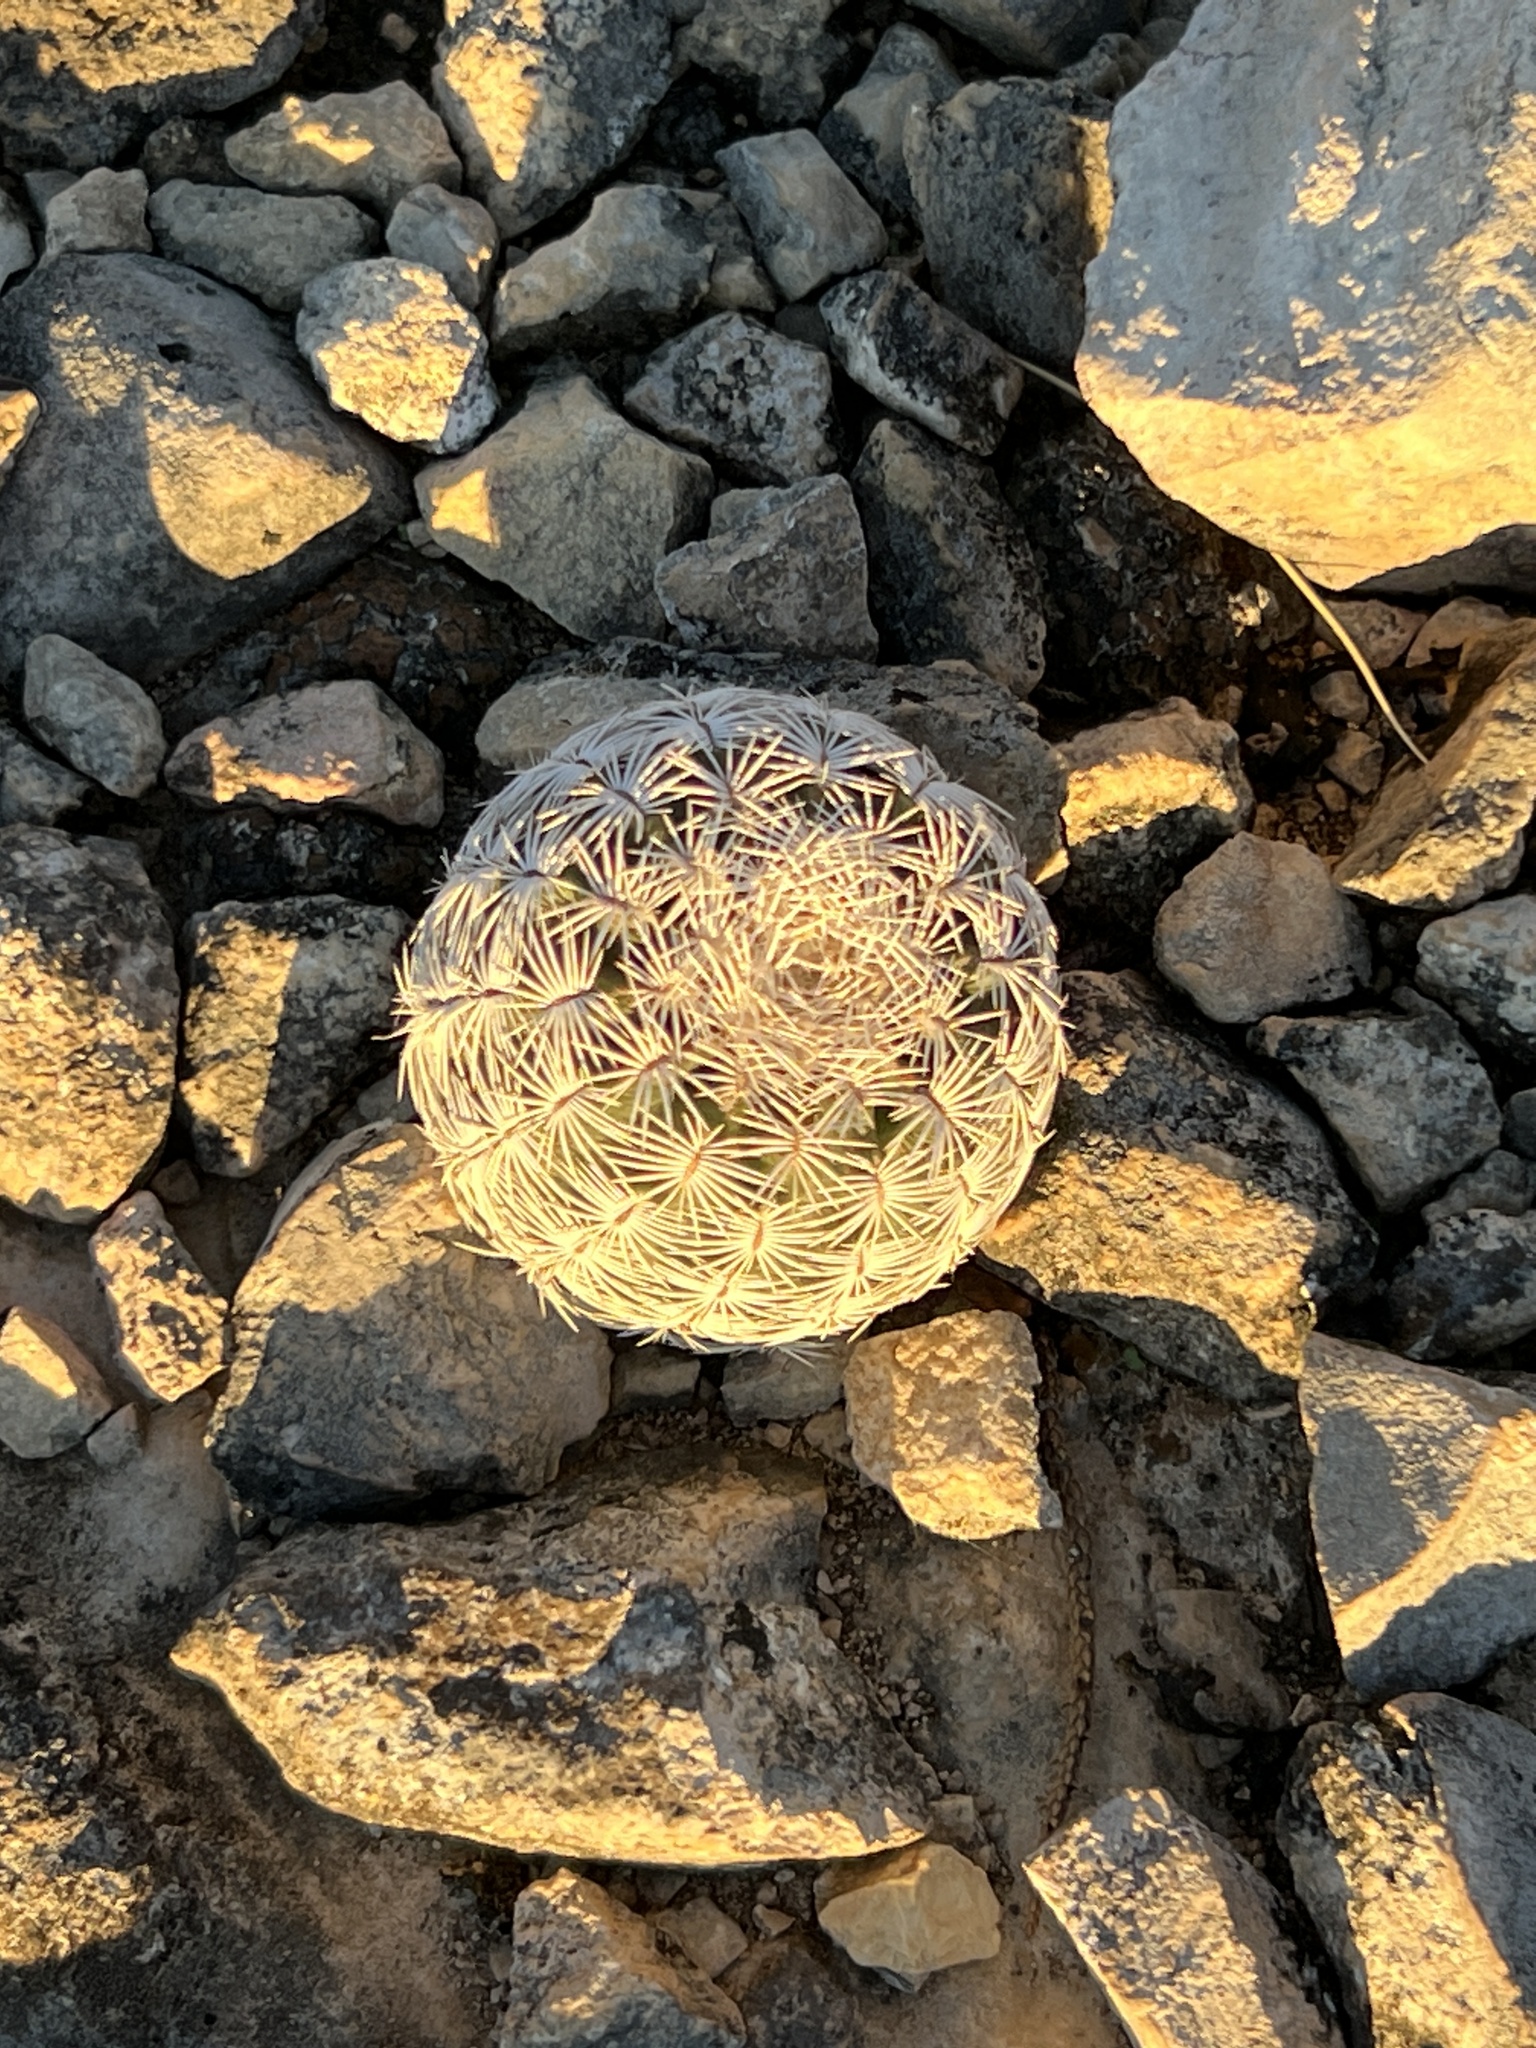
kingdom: Plantae
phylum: Tracheophyta
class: Magnoliopsida
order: Caryophyllales
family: Cactaceae
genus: Echinocereus
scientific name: Echinocereus reichenbachii
